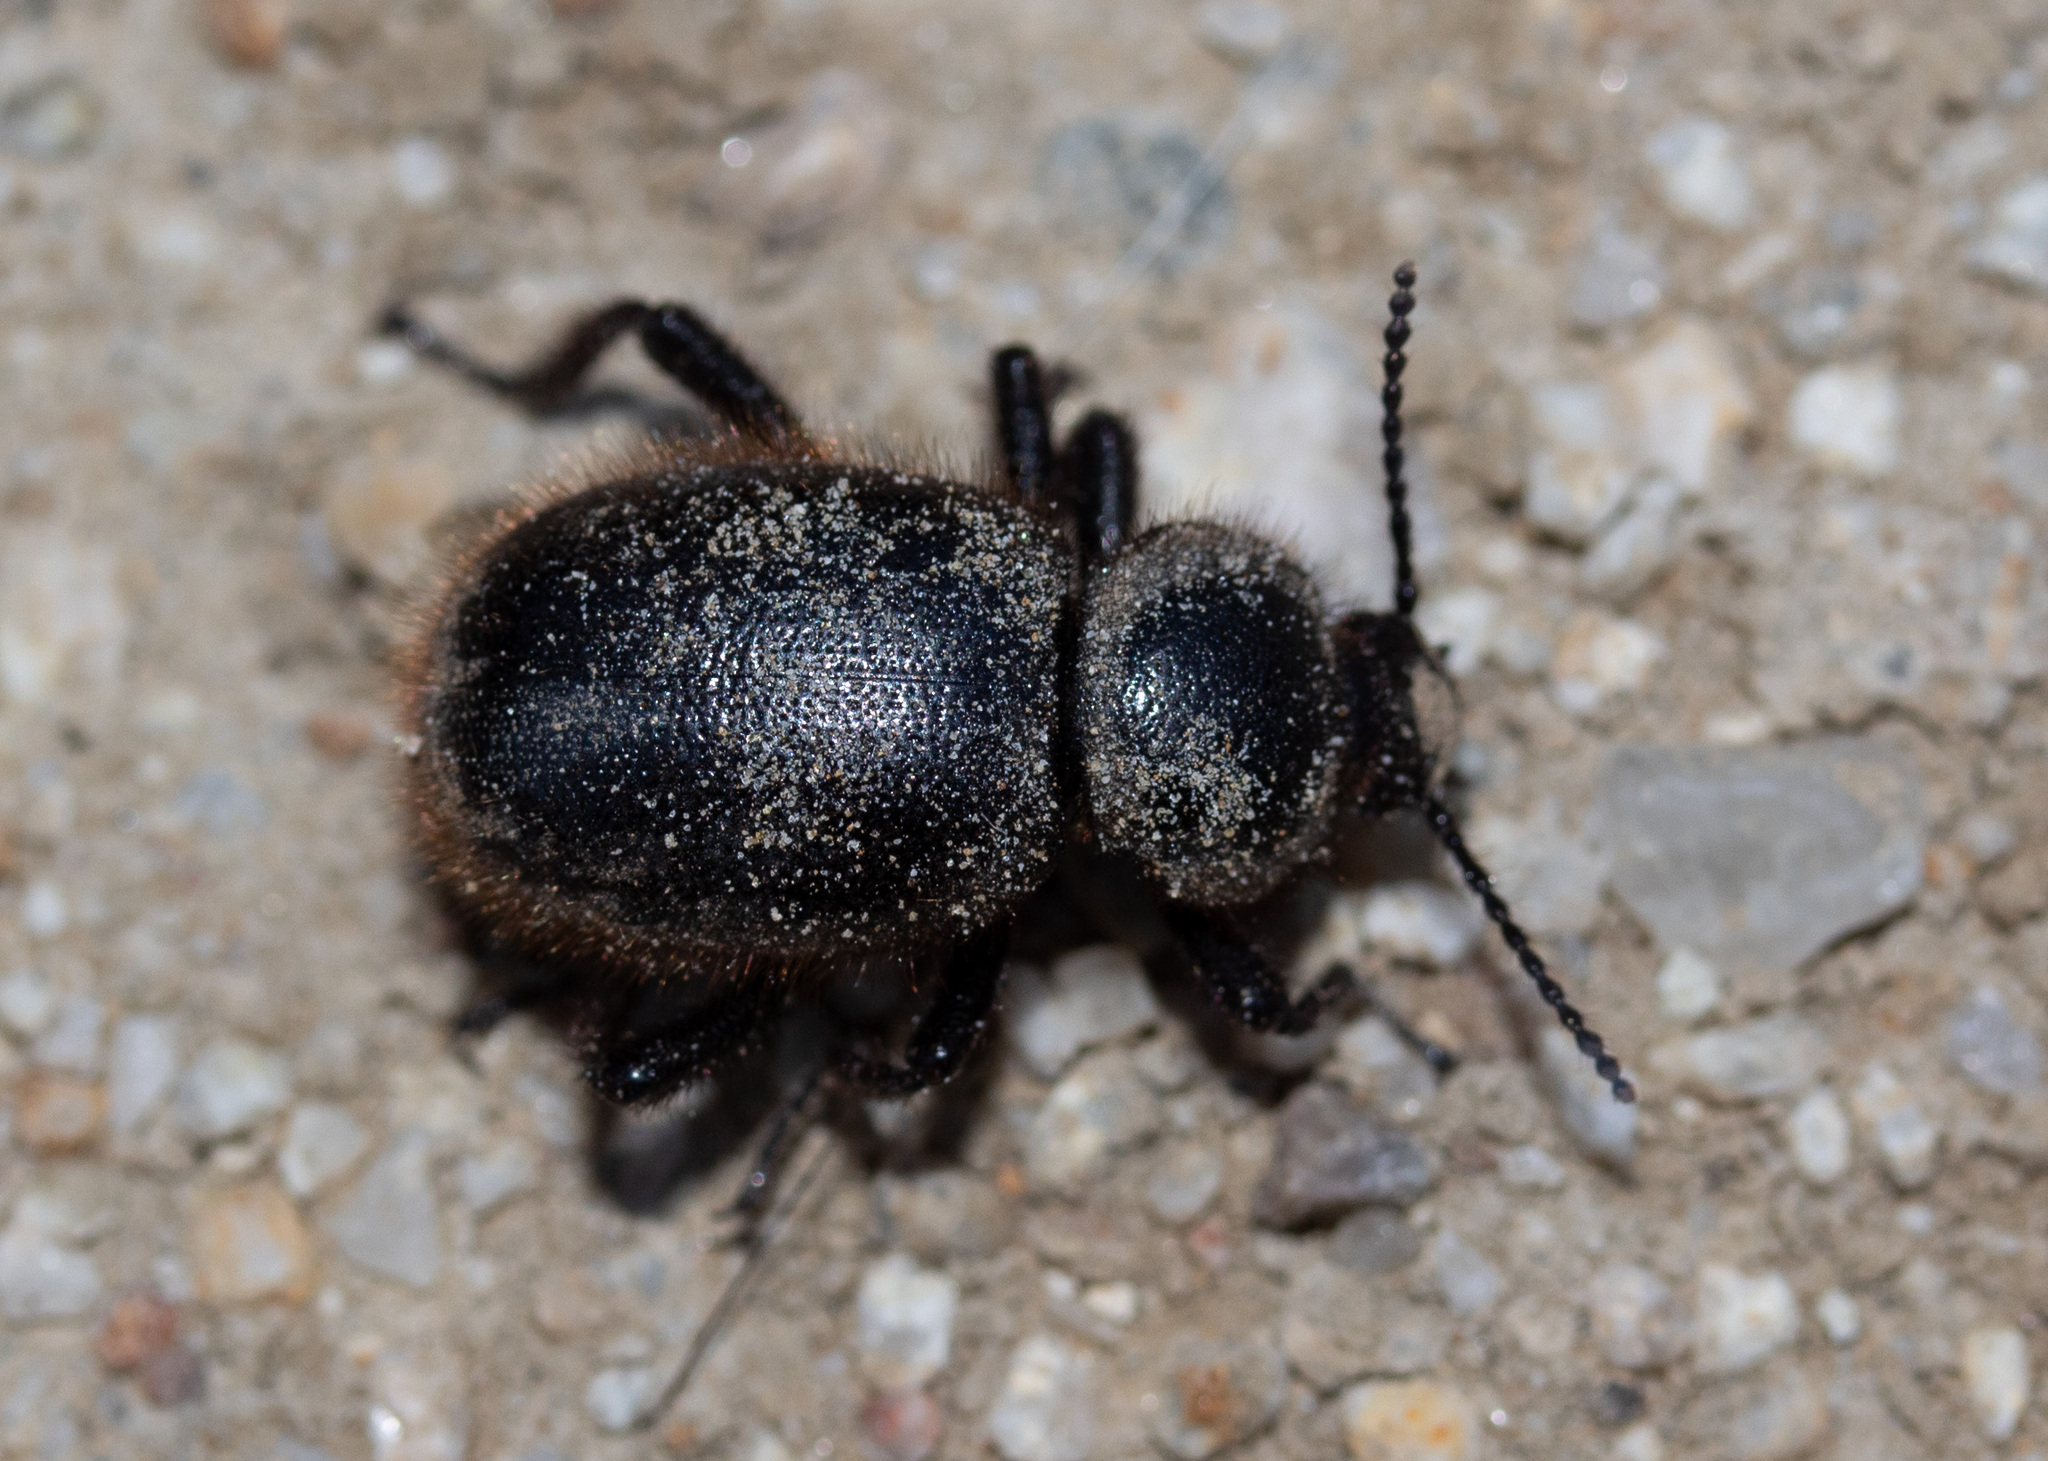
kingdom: Animalia
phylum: Arthropoda
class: Insecta
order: Coleoptera
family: Tenebrionidae
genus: Eleodes
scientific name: Eleodes osculans
